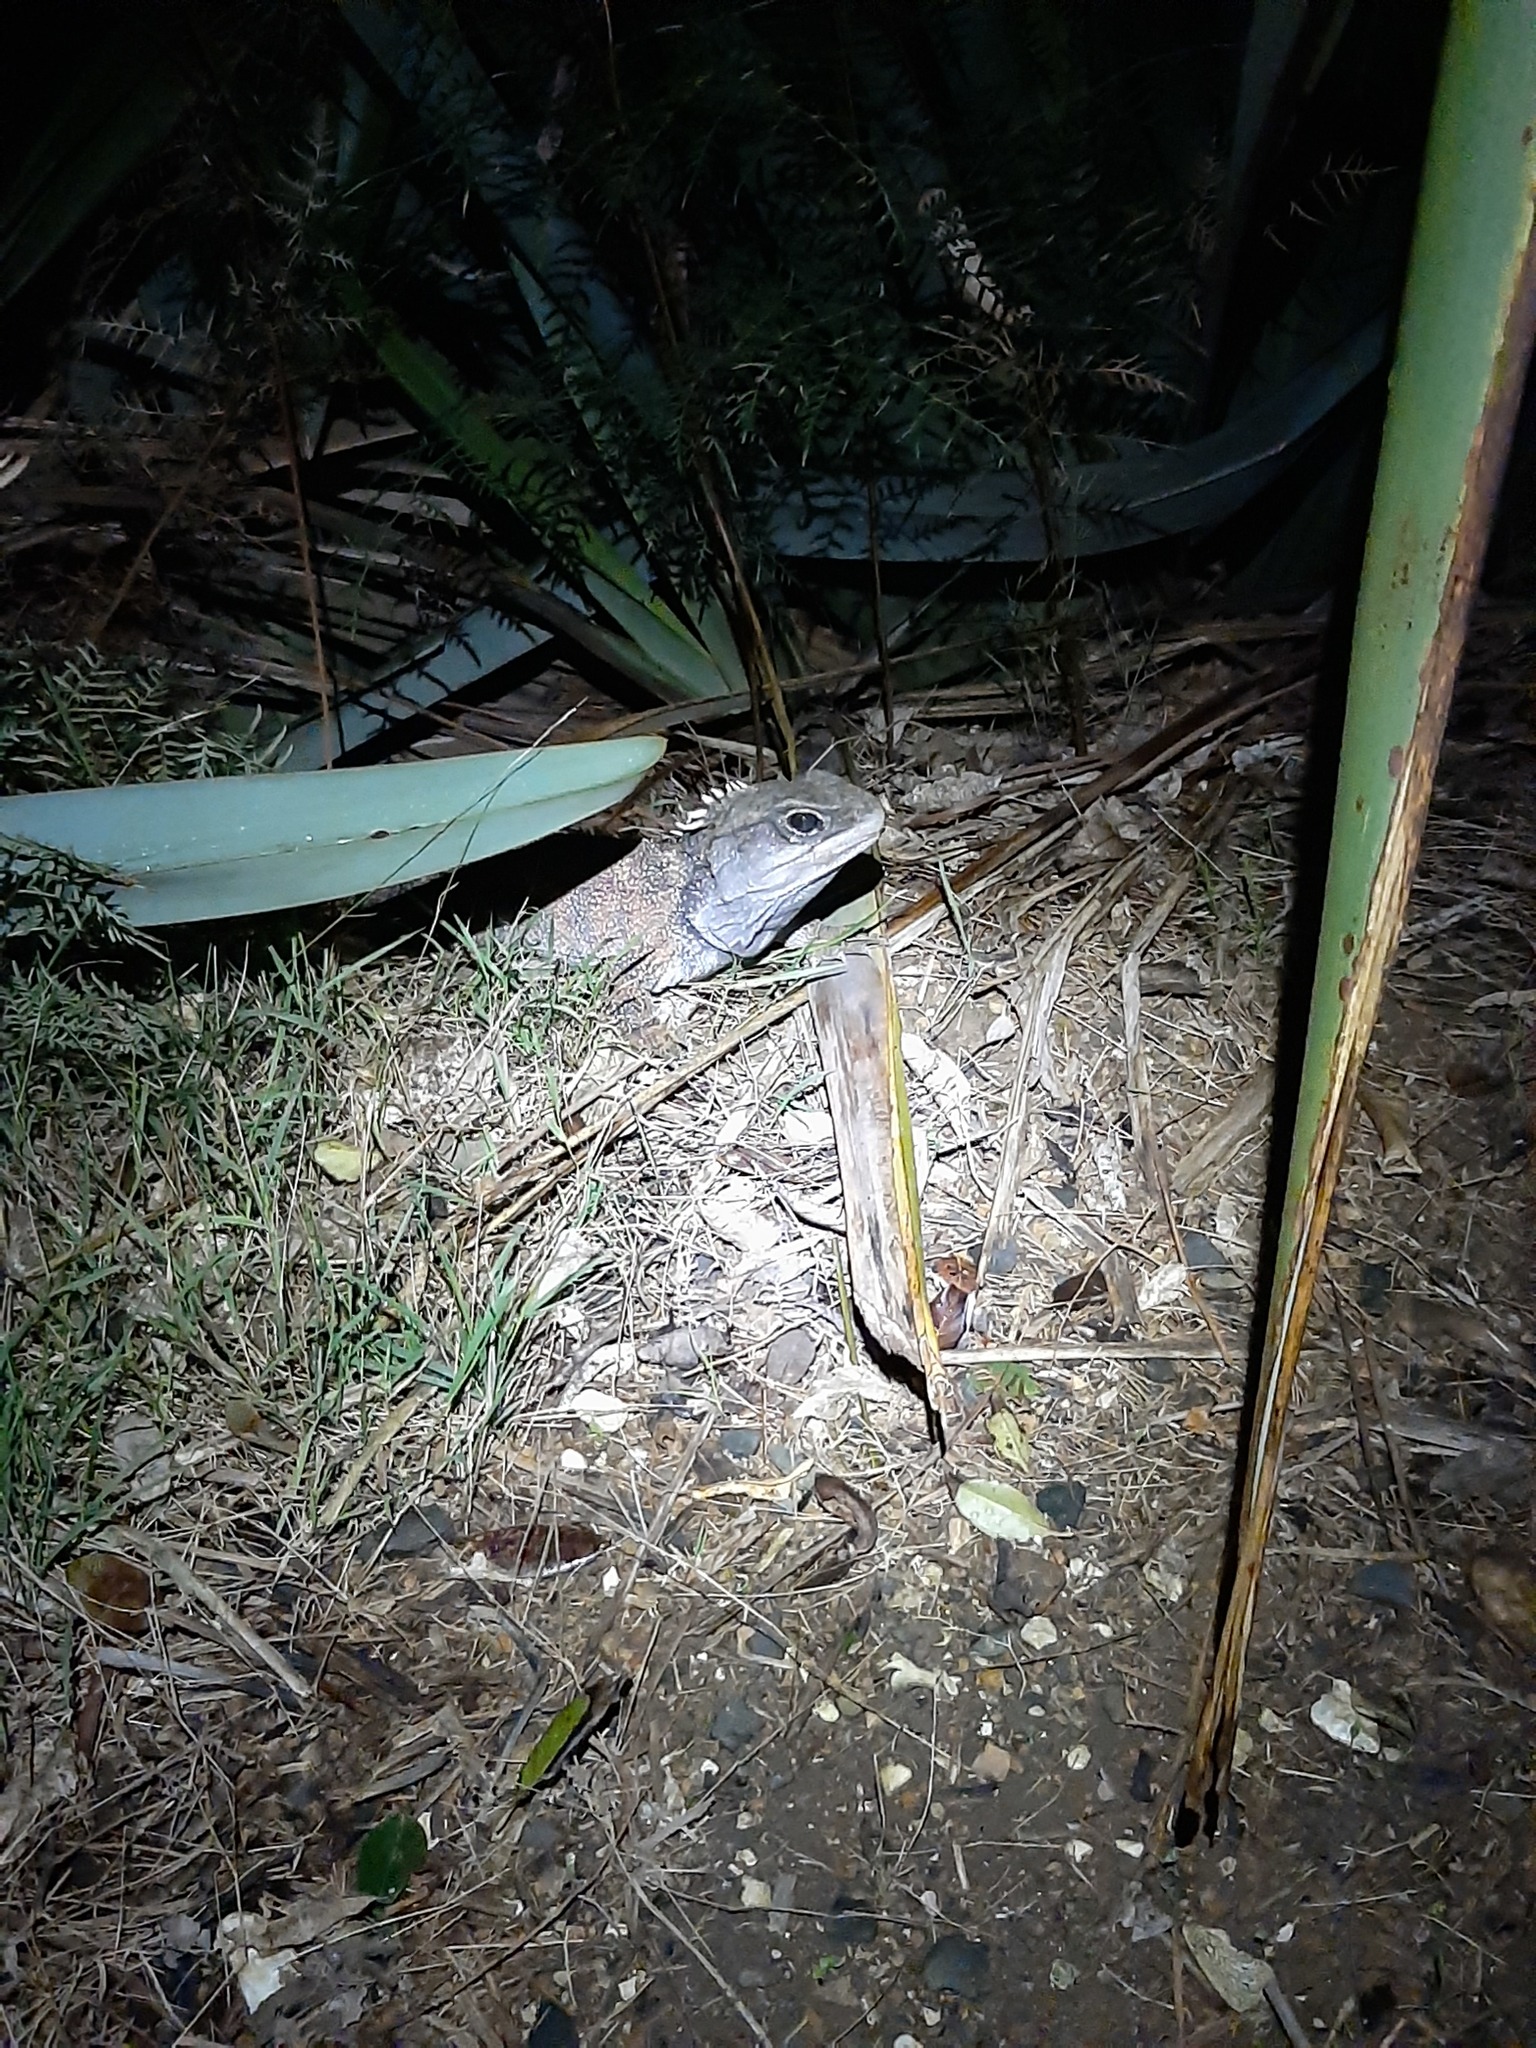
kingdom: Animalia
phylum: Chordata
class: Sphenodontia
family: Sphenodontidae
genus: Sphenodon
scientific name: Sphenodon punctatus
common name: Tuatara
